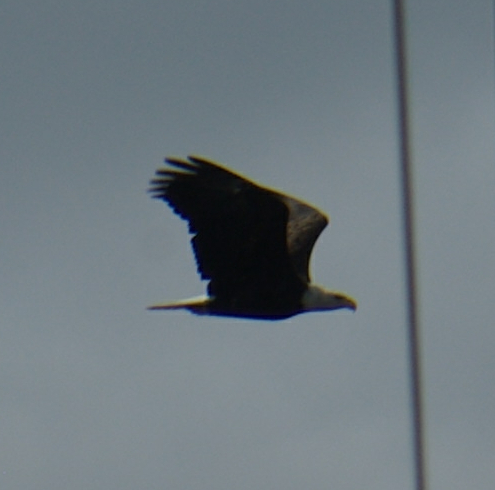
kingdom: Animalia
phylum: Chordata
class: Aves
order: Accipitriformes
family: Accipitridae
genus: Haliaeetus
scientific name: Haliaeetus leucocephalus
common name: Bald eagle
